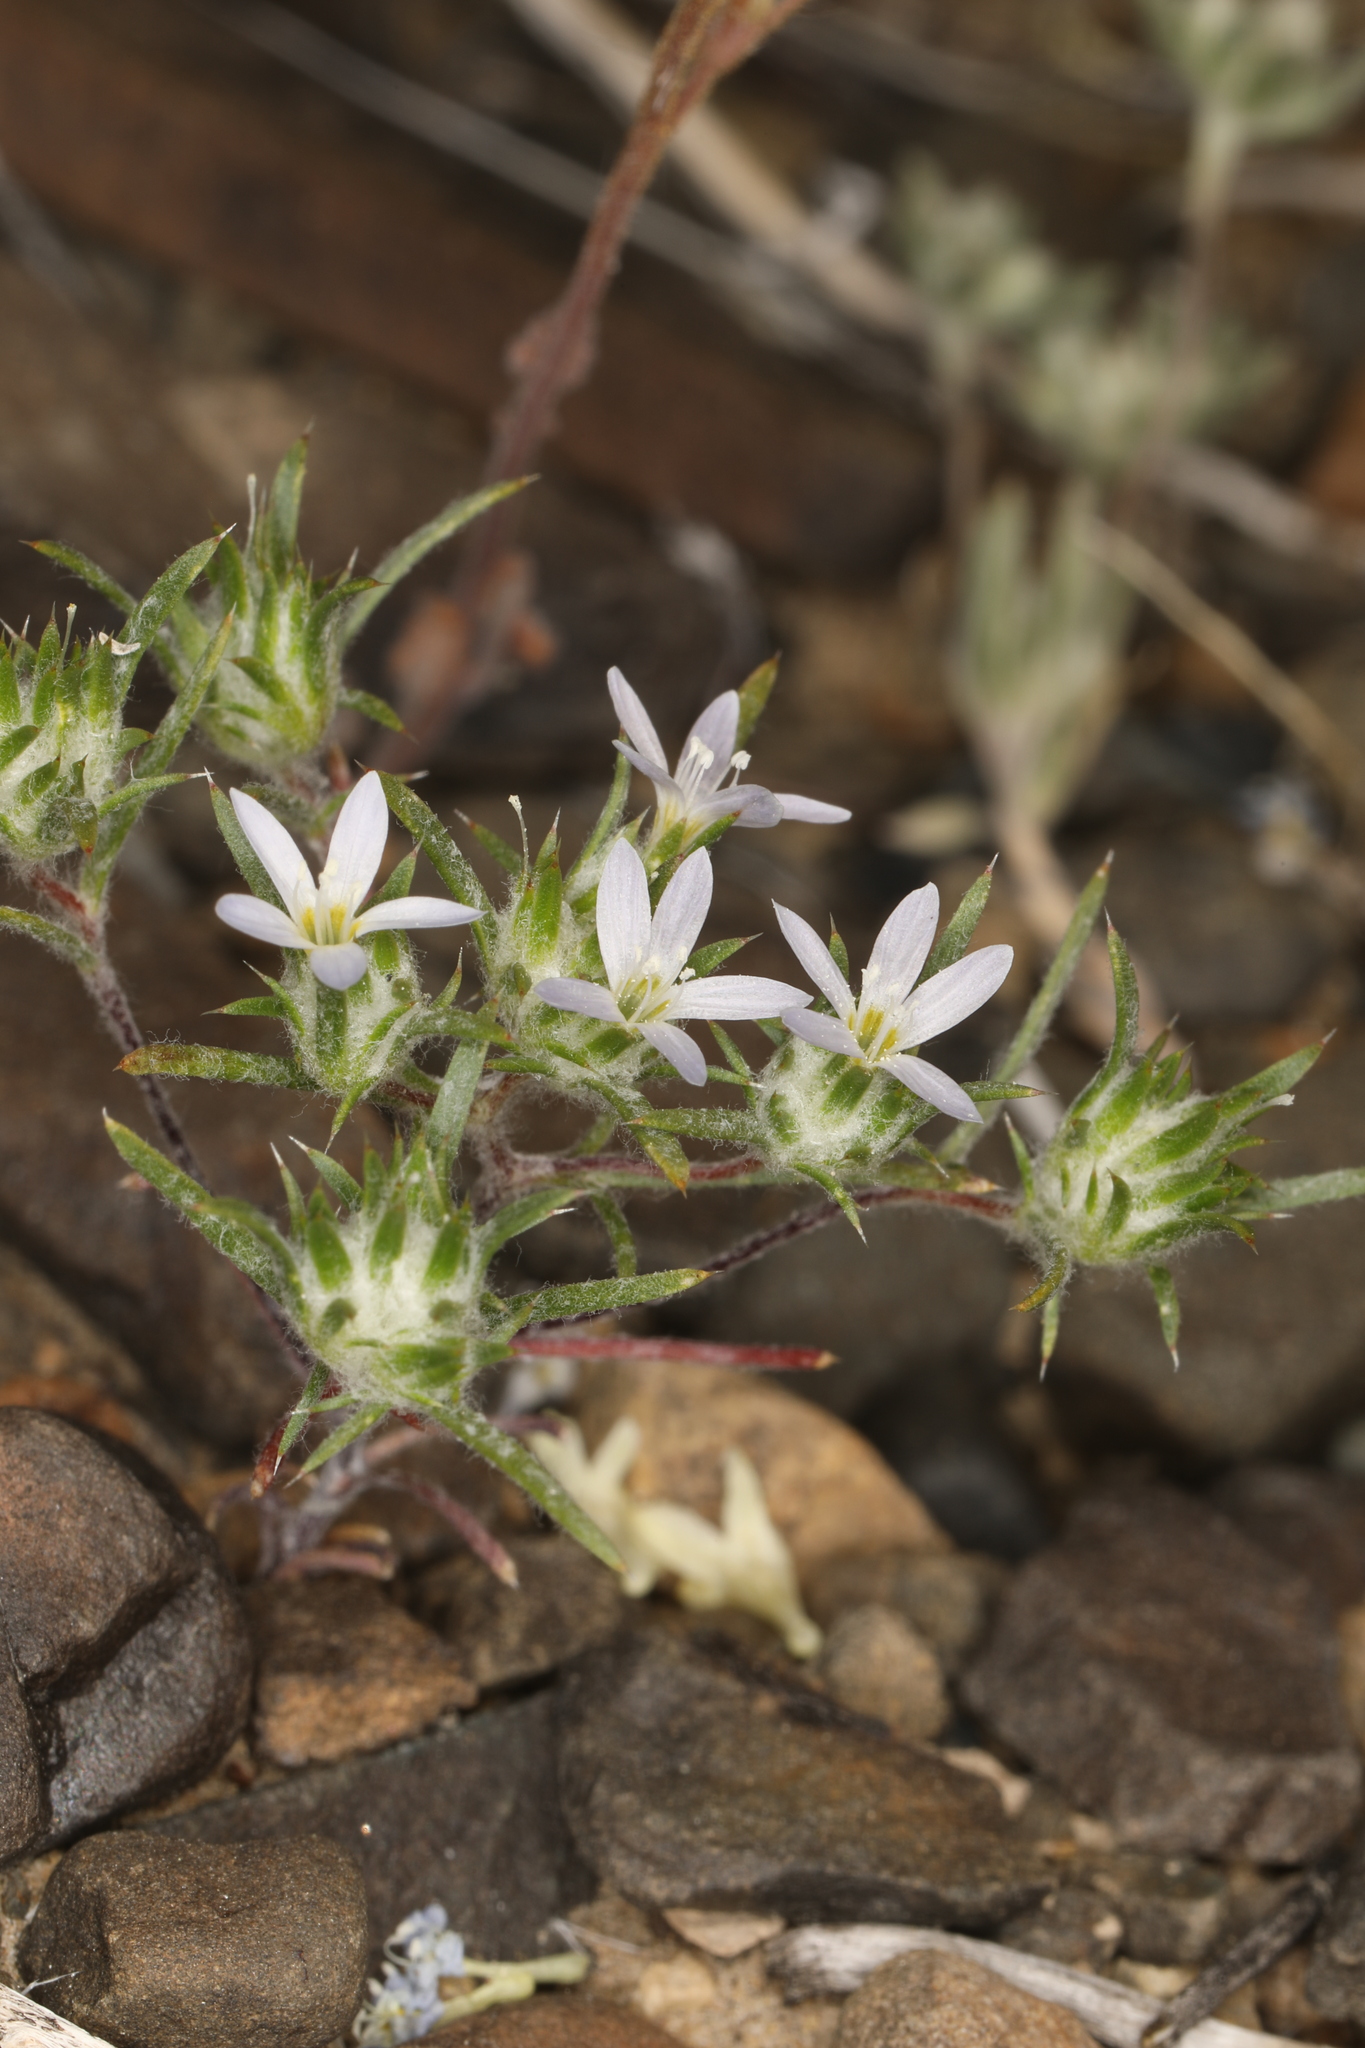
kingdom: Plantae
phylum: Tracheophyta
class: Magnoliopsida
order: Ericales
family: Polemoniaceae
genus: Eriastrum
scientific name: Eriastrum diffusum
